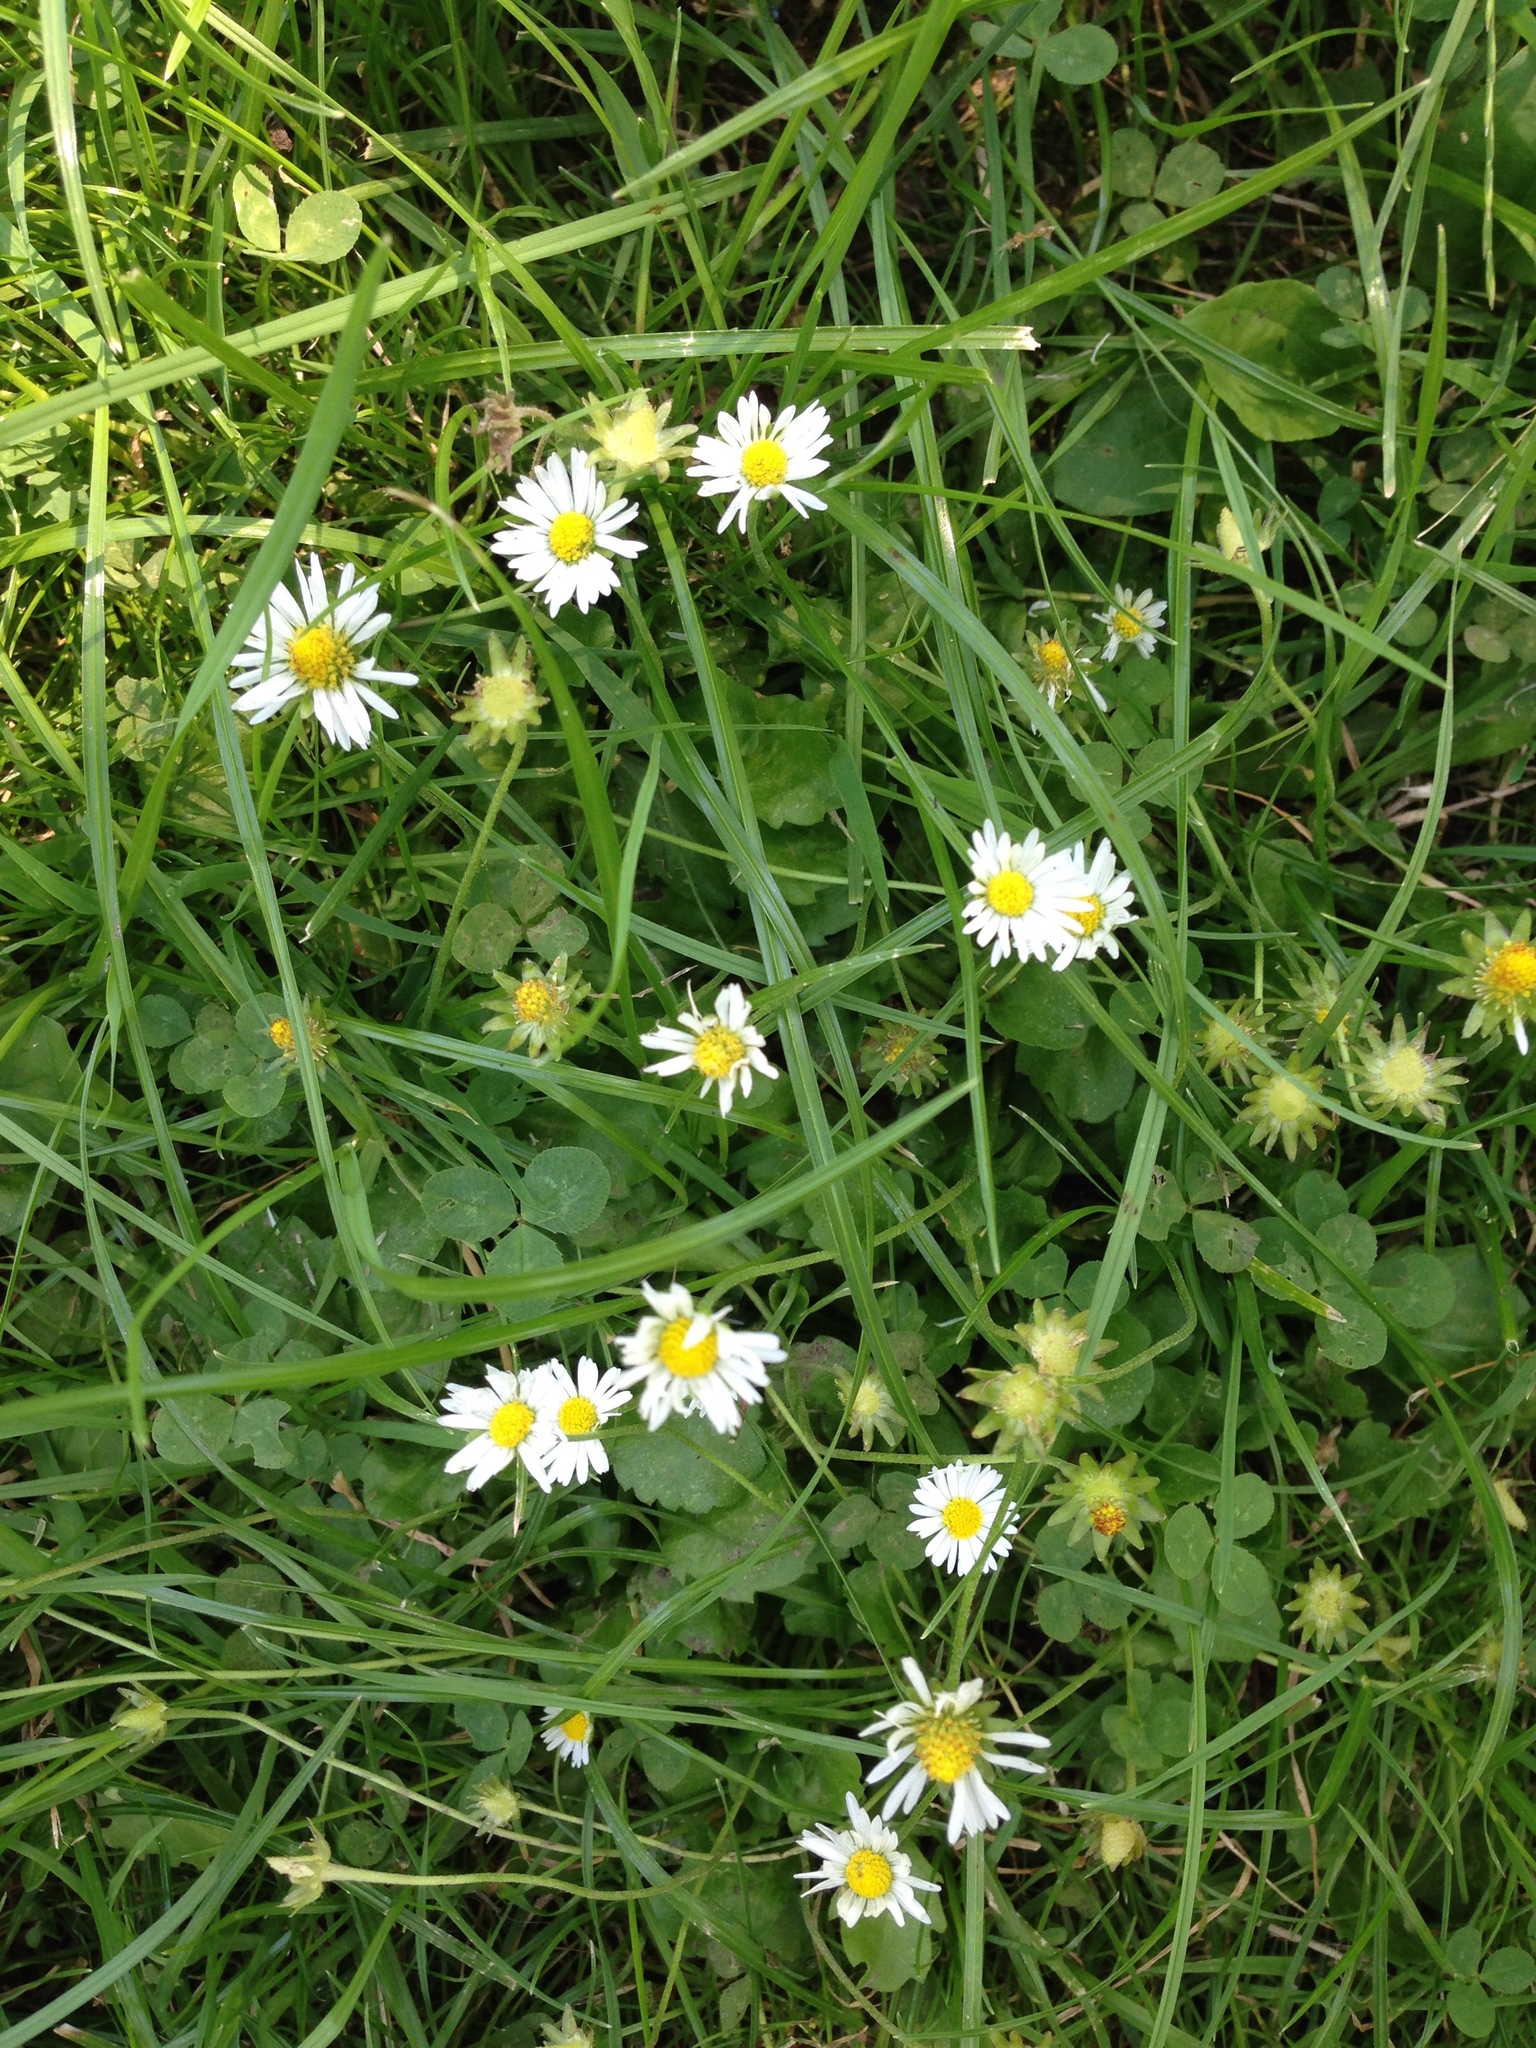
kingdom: Plantae
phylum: Tracheophyta
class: Magnoliopsida
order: Asterales
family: Asteraceae
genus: Bellis
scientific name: Bellis perennis
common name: Lawndaisy
